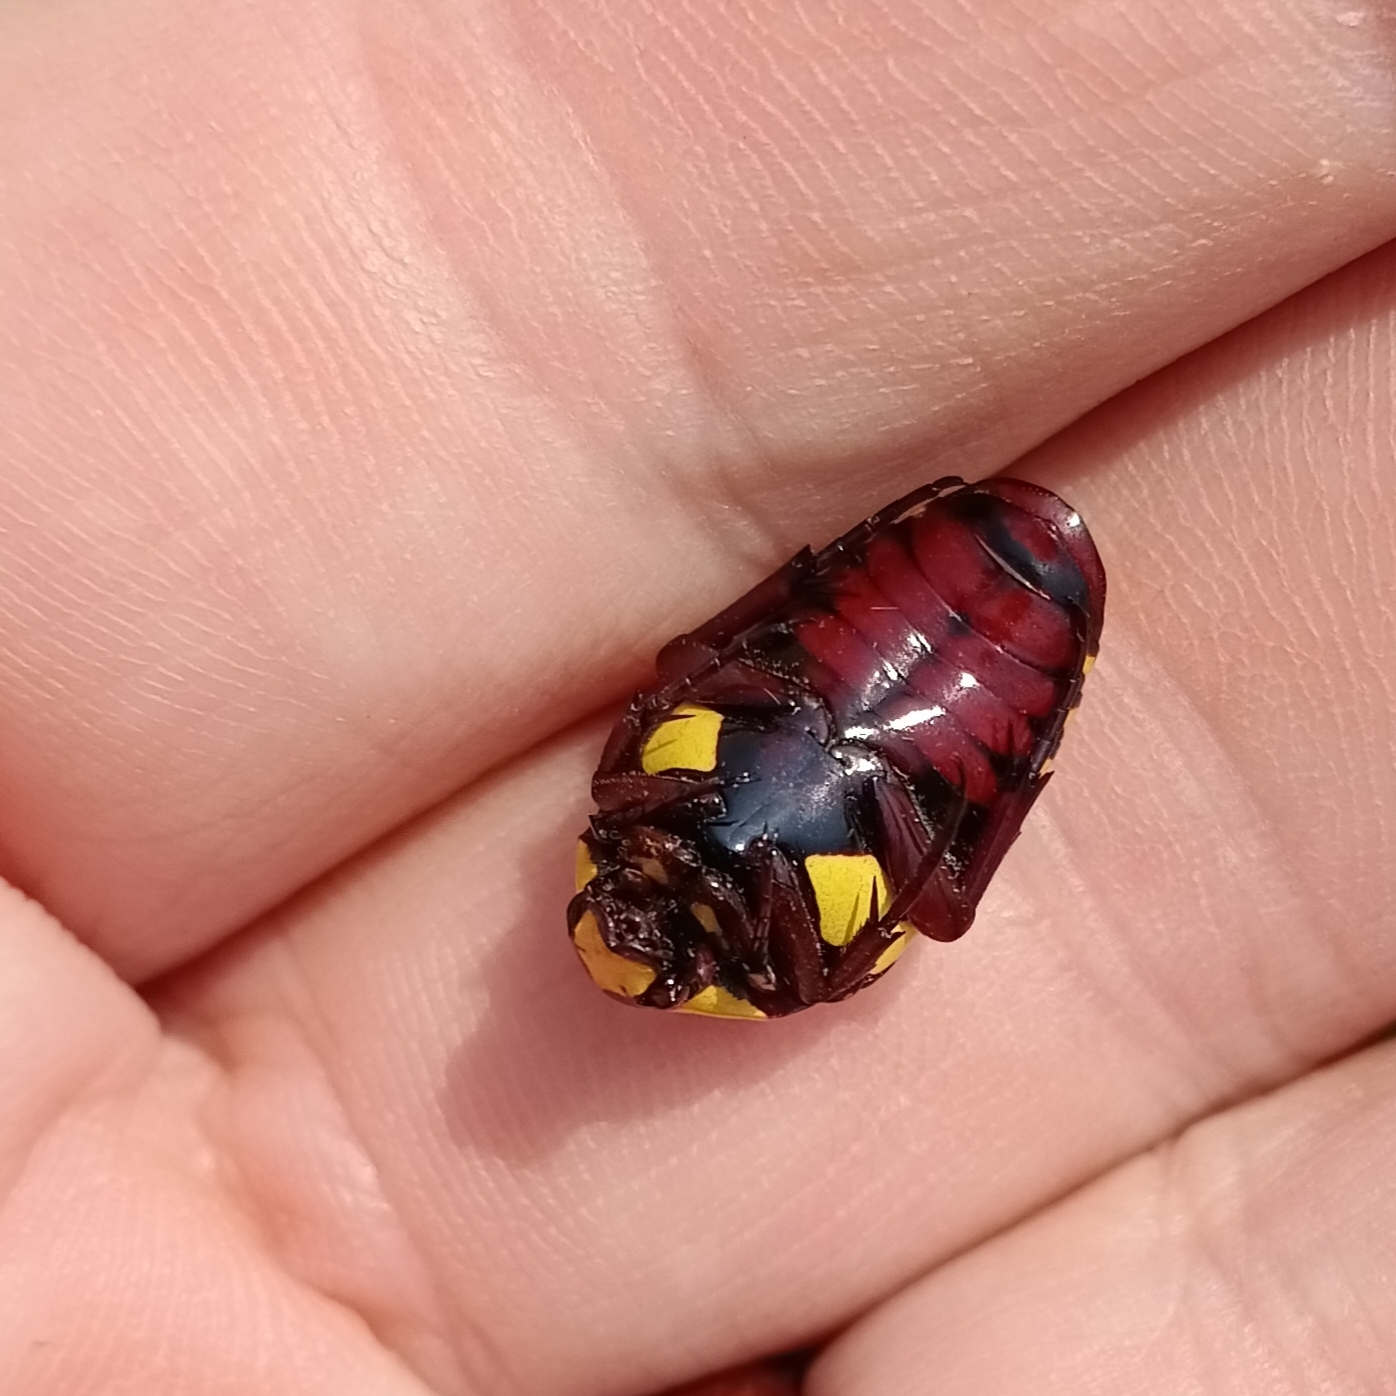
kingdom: Animalia
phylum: Arthropoda
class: Insecta
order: Coleoptera
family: Scarabaeidae
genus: Campsiura
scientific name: Campsiura cognata
